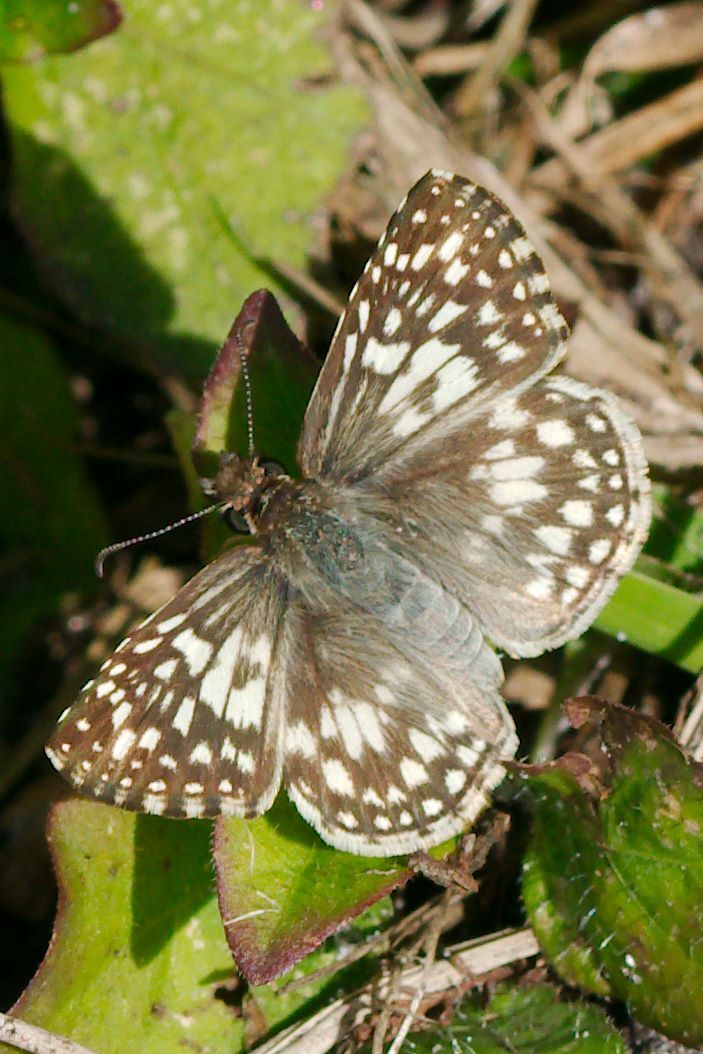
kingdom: Animalia
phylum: Arthropoda
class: Insecta
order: Lepidoptera
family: Hesperiidae
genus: Pyrgus
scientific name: Pyrgus oileus
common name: Tropical checkered-skipper
